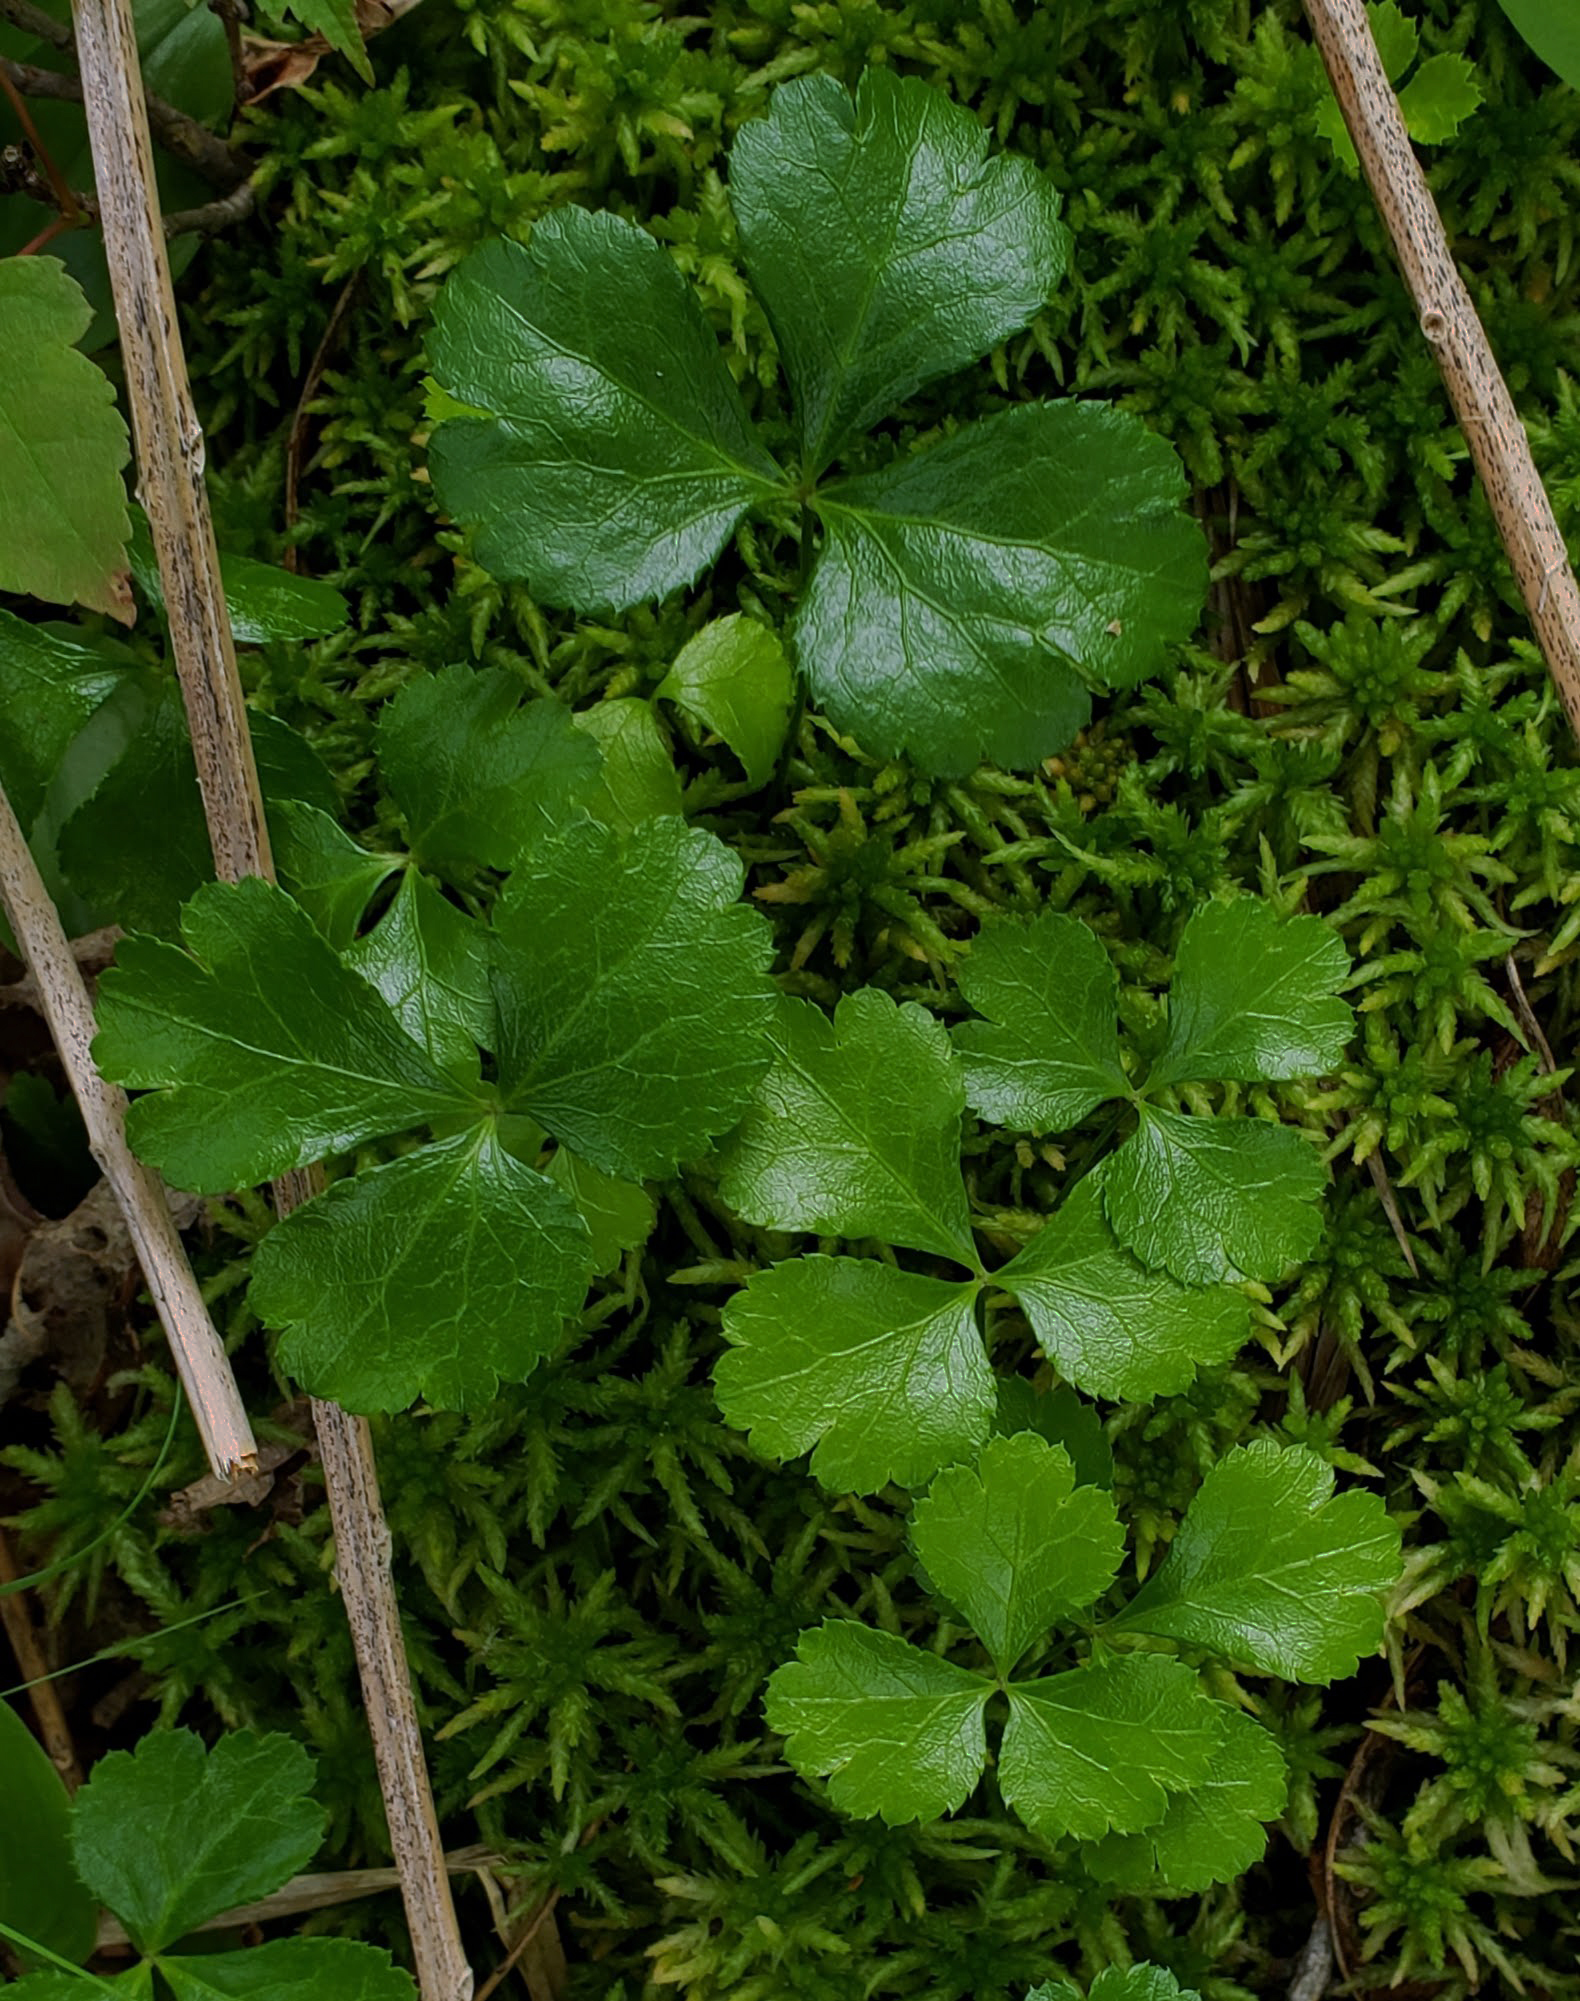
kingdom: Plantae
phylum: Tracheophyta
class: Magnoliopsida
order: Ranunculales
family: Ranunculaceae
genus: Coptis
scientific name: Coptis trifolia
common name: Canker-root
